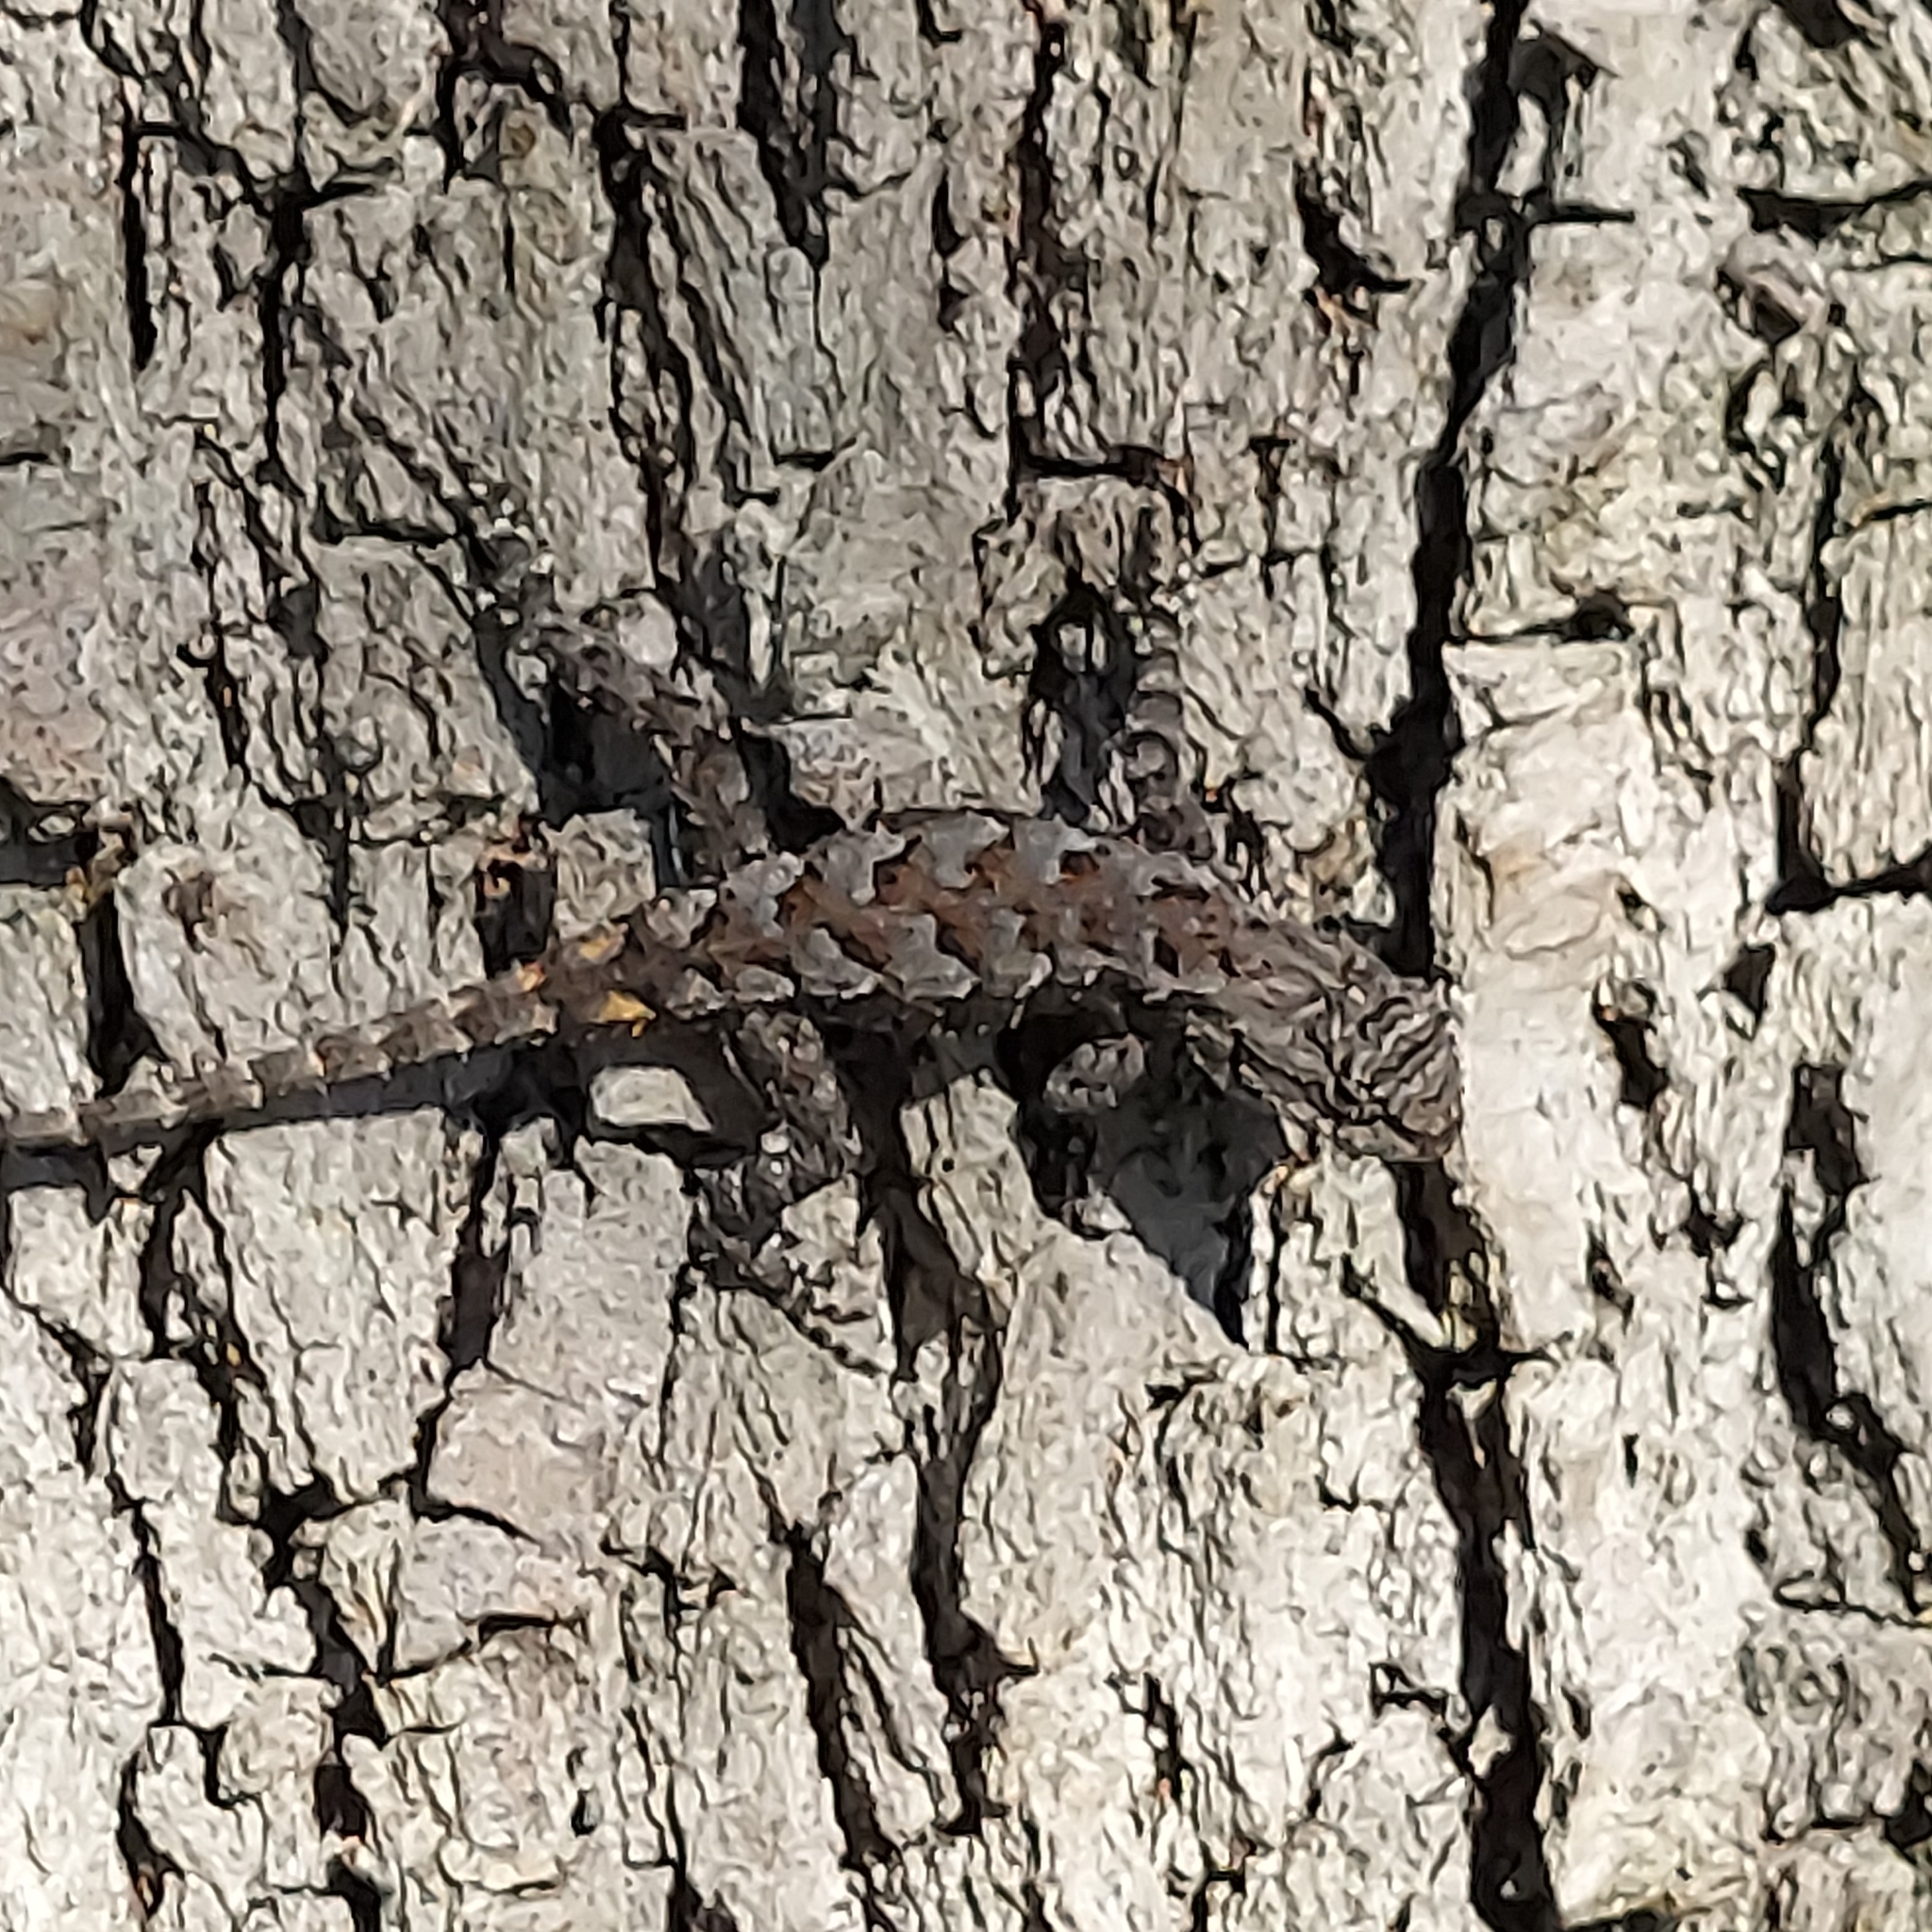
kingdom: Animalia
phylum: Chordata
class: Squamata
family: Phrynosomatidae
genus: Sceloporus
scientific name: Sceloporus undulatus
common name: Eastern fence lizard
